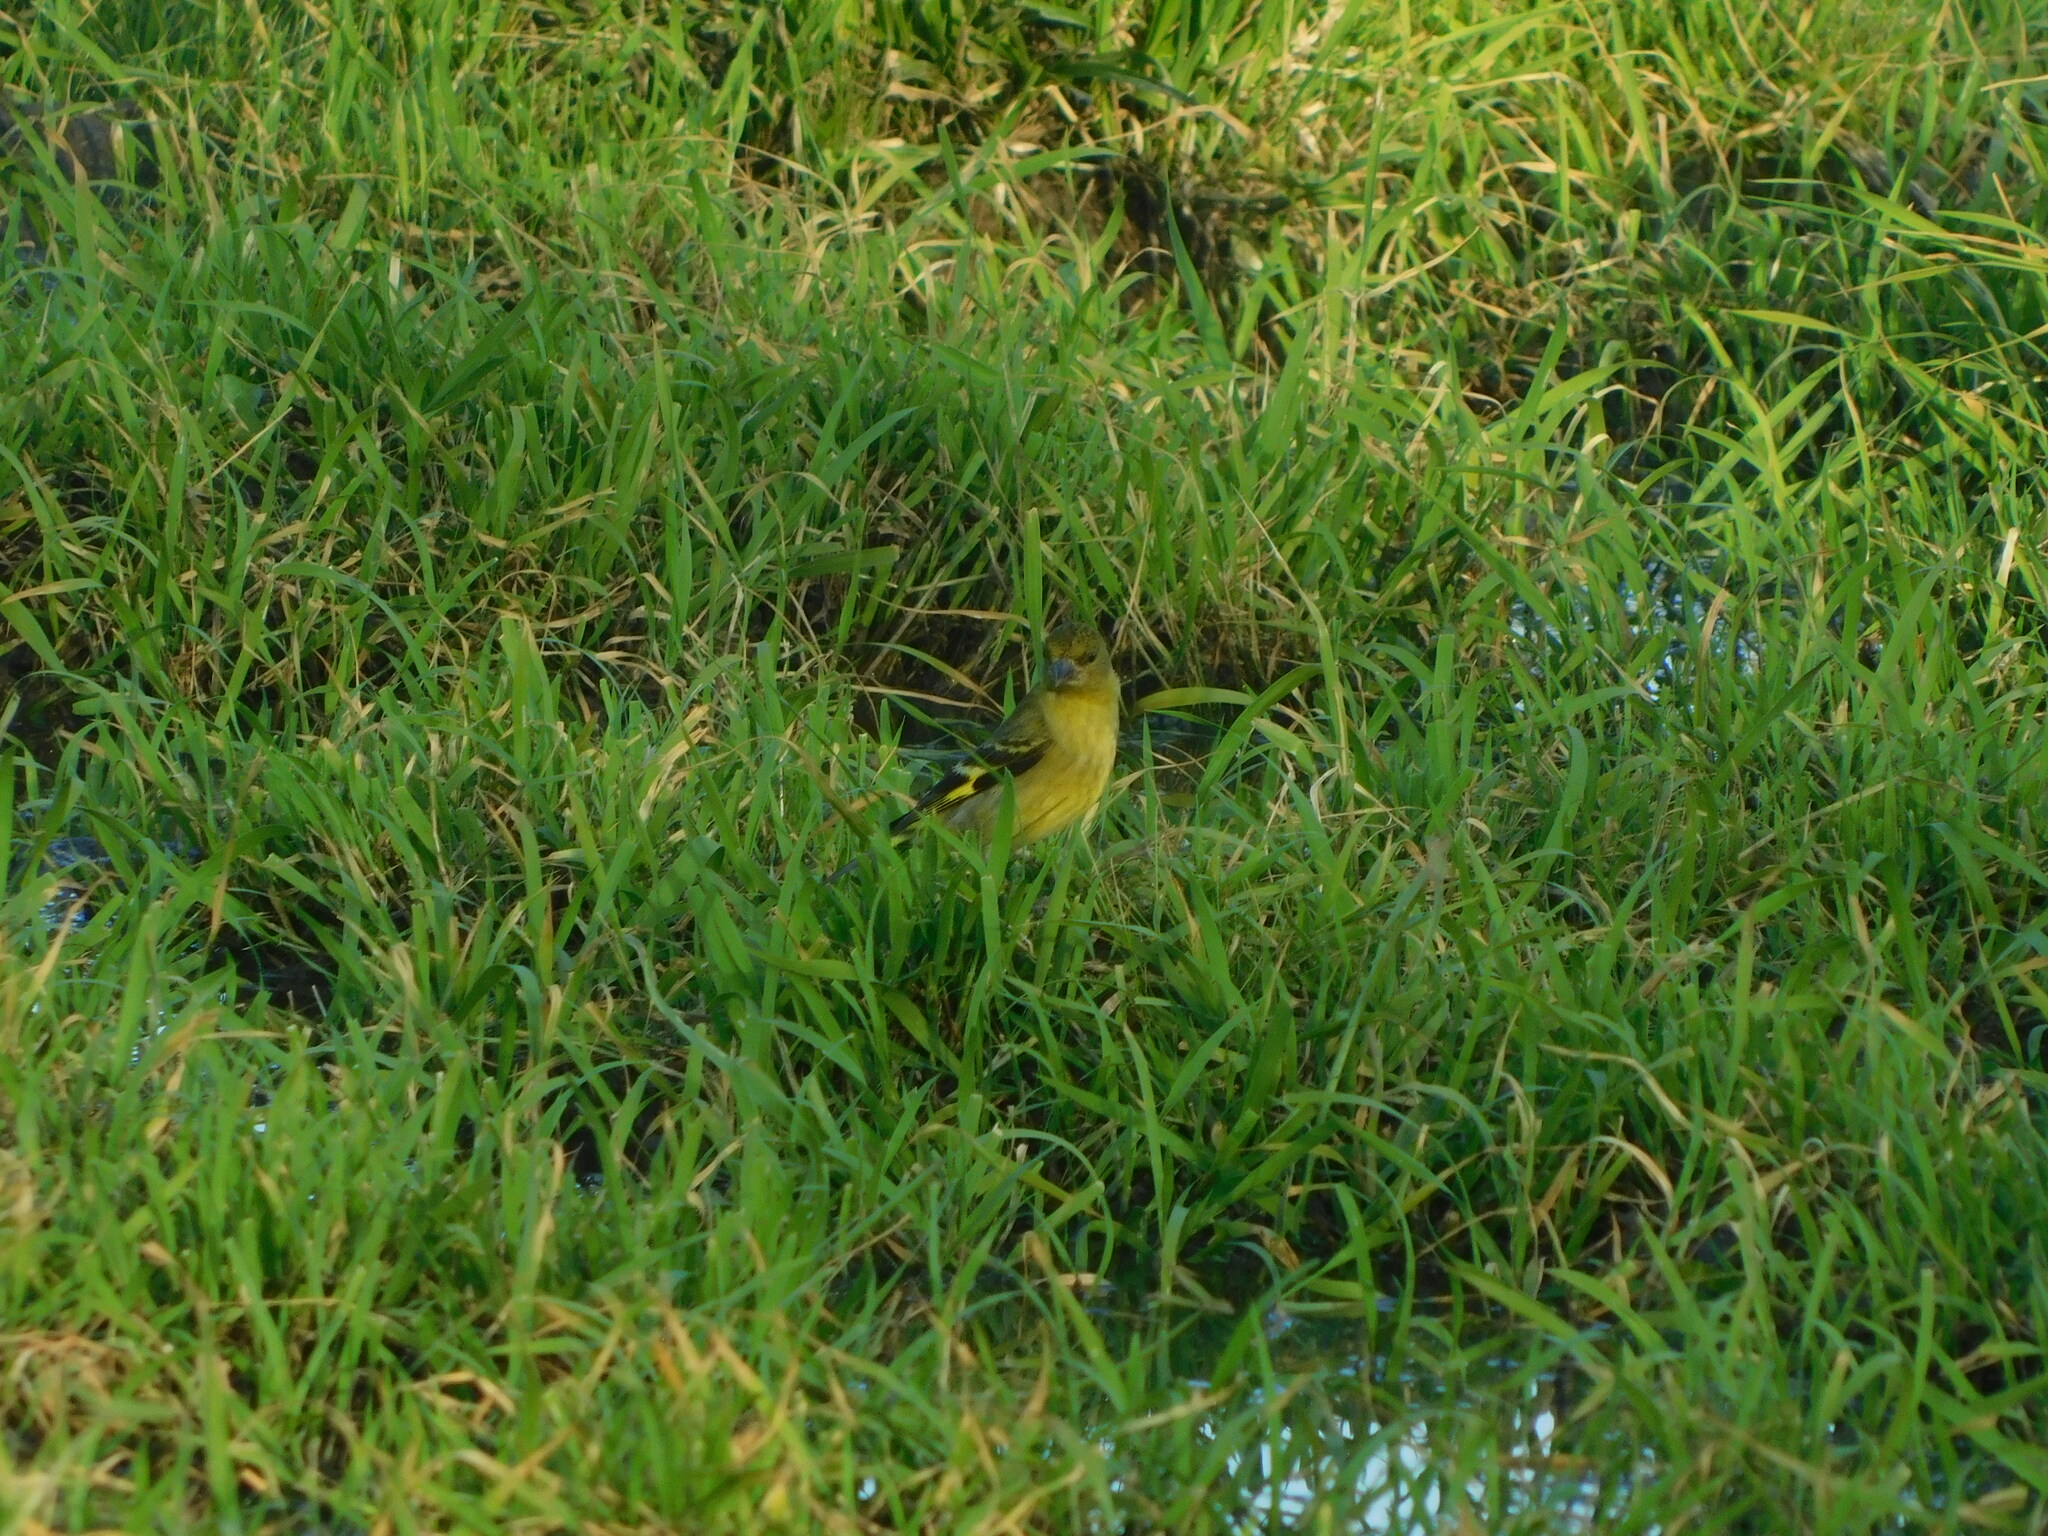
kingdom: Animalia
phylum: Chordata
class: Aves
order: Passeriformes
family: Fringillidae
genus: Spinus
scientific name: Spinus magellanicus
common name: Hooded siskin
